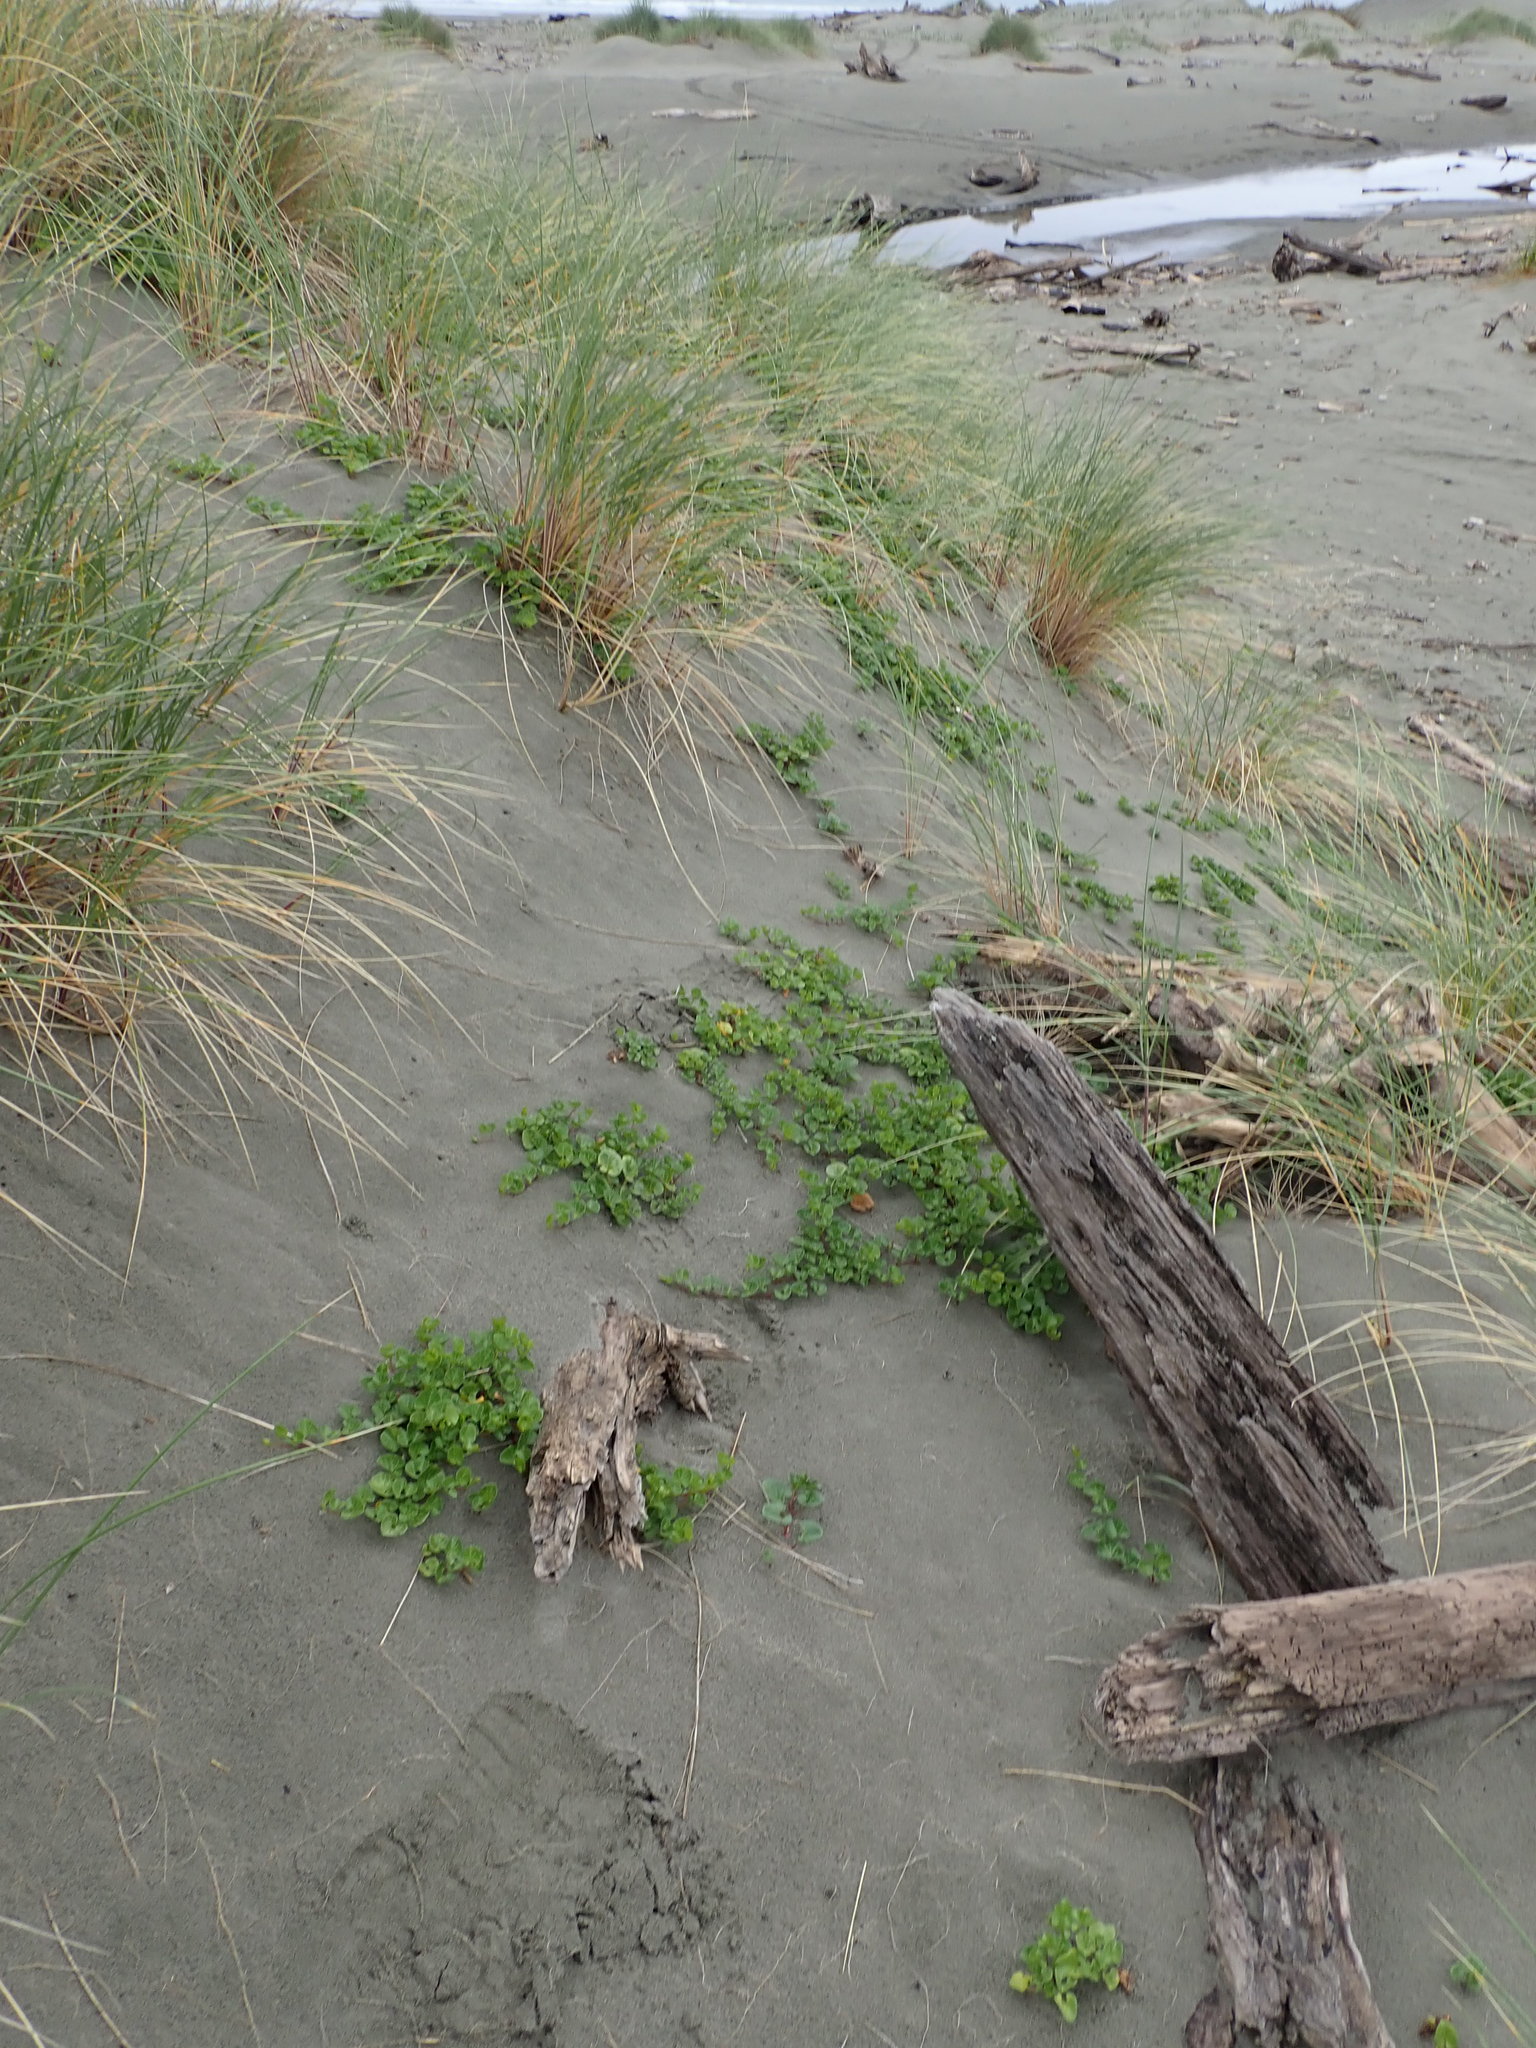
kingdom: Plantae
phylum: Tracheophyta
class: Magnoliopsida
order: Solanales
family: Convolvulaceae
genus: Calystegia
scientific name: Calystegia soldanella
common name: Sea bindweed
